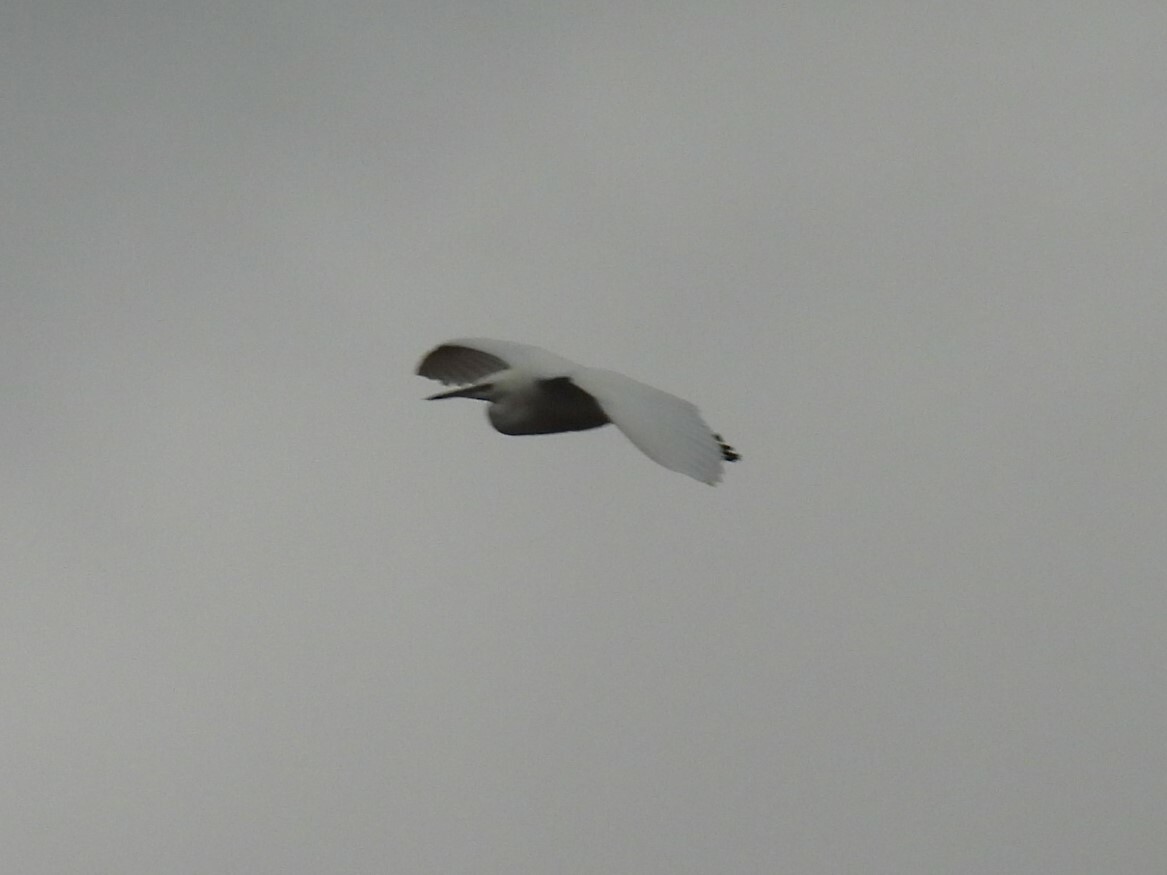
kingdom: Animalia
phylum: Chordata
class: Aves
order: Pelecaniformes
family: Ardeidae
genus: Egretta
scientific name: Egretta garzetta
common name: Little egret
